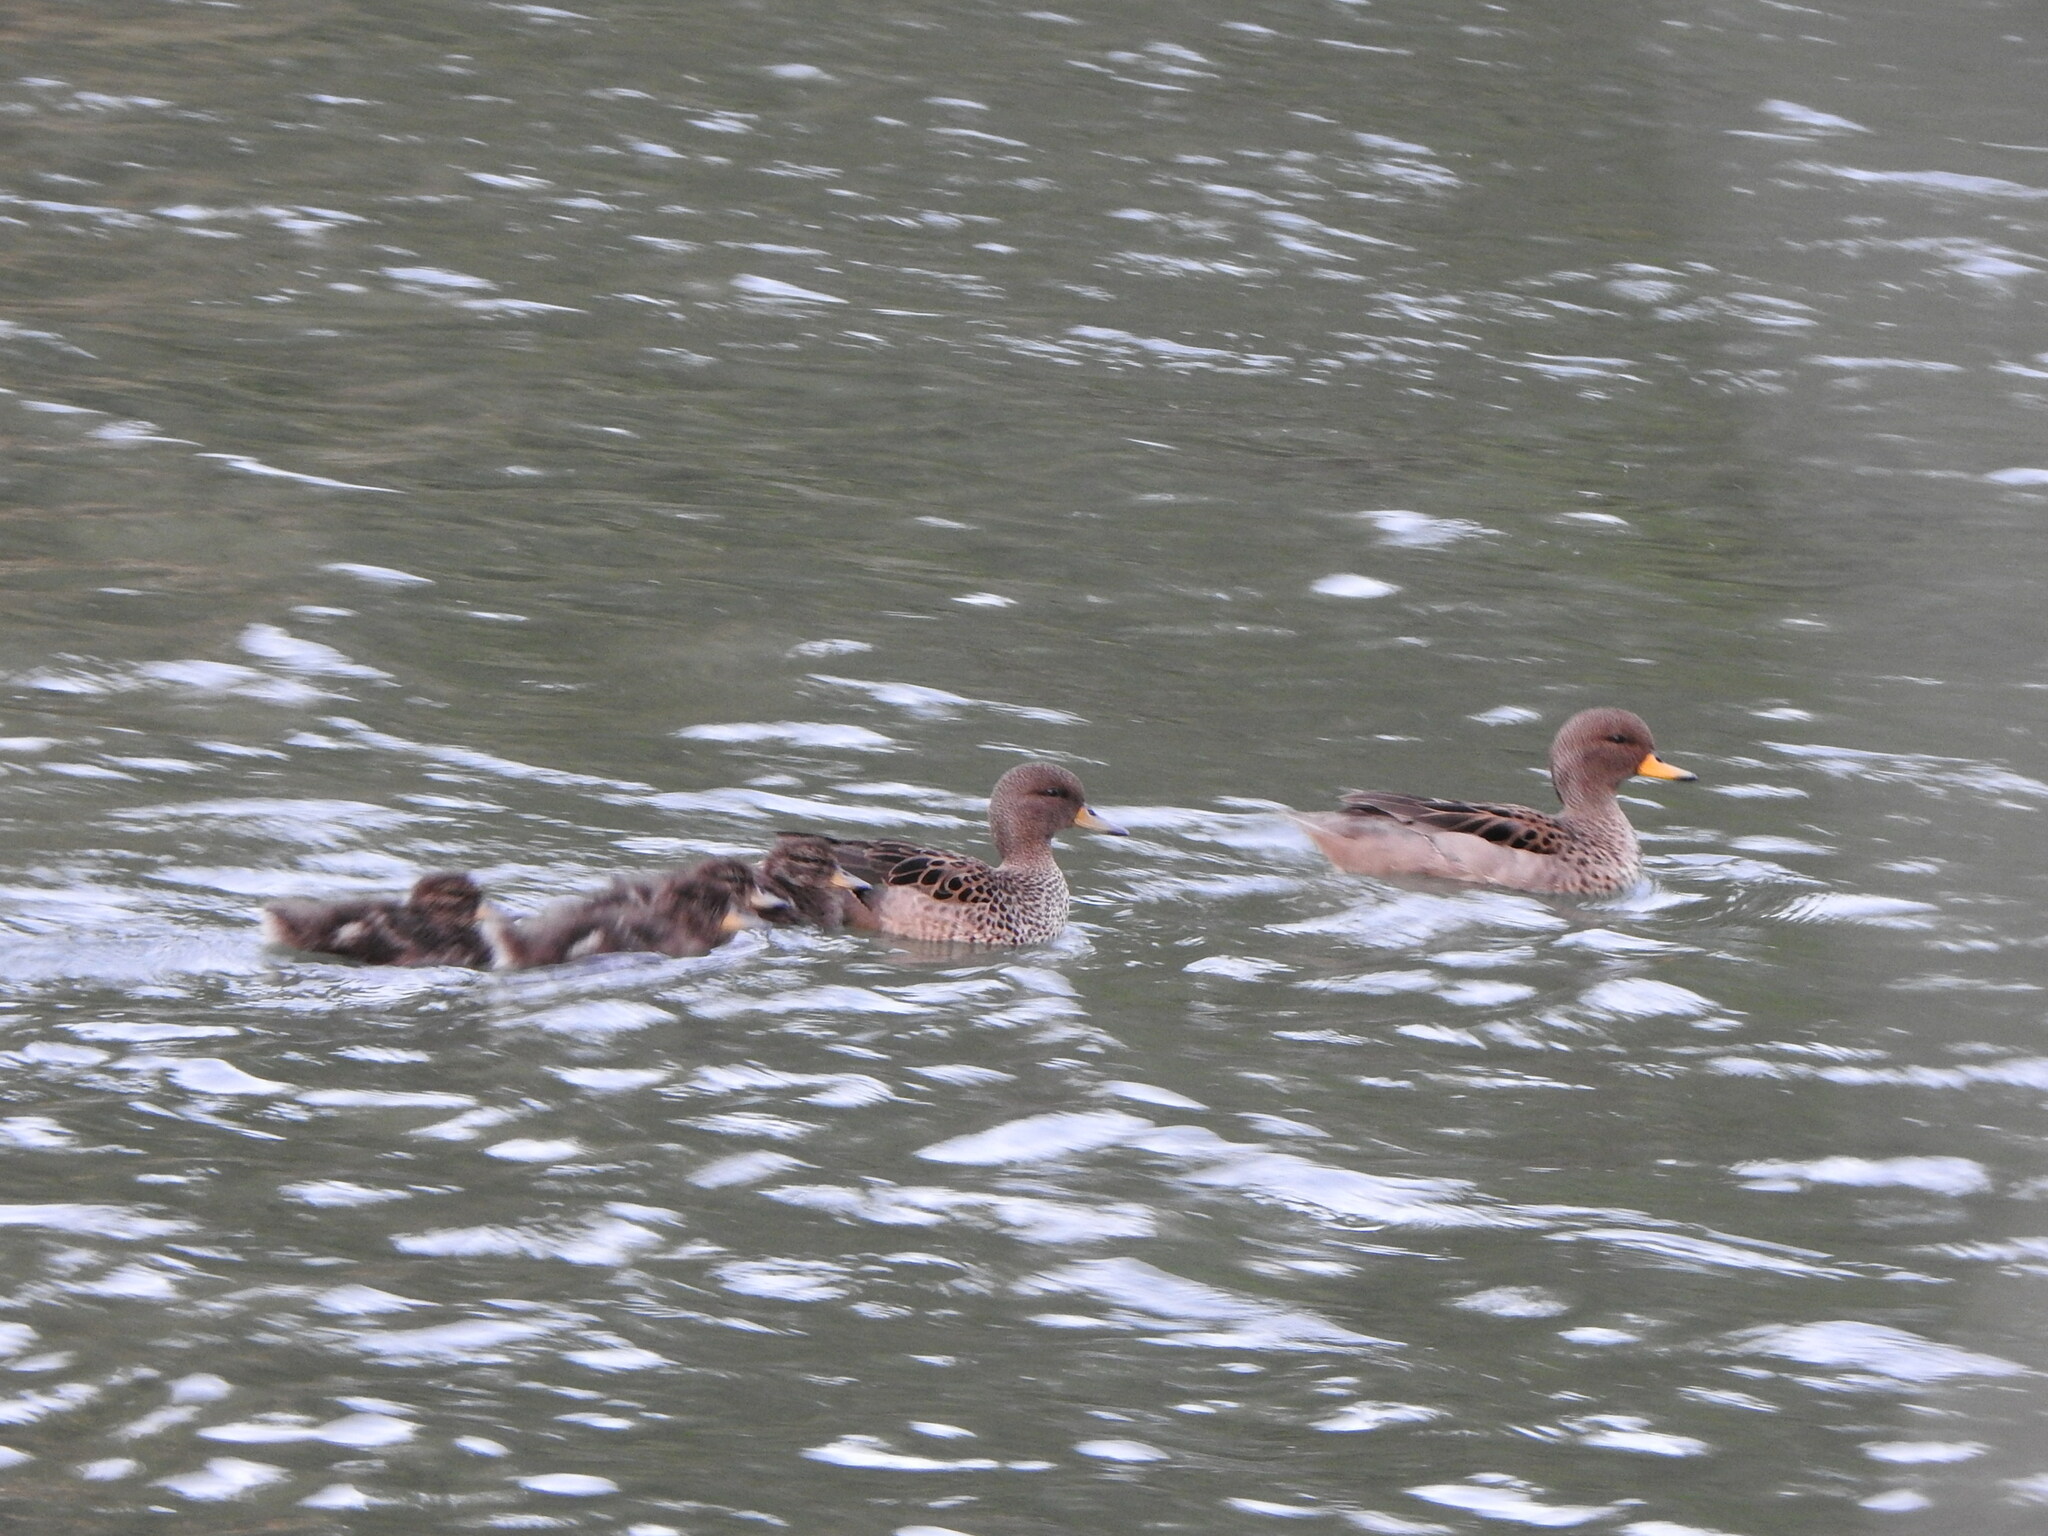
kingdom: Animalia
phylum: Chordata
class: Aves
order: Anseriformes
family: Anatidae
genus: Anas
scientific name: Anas flavirostris
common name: Yellow-billed teal
